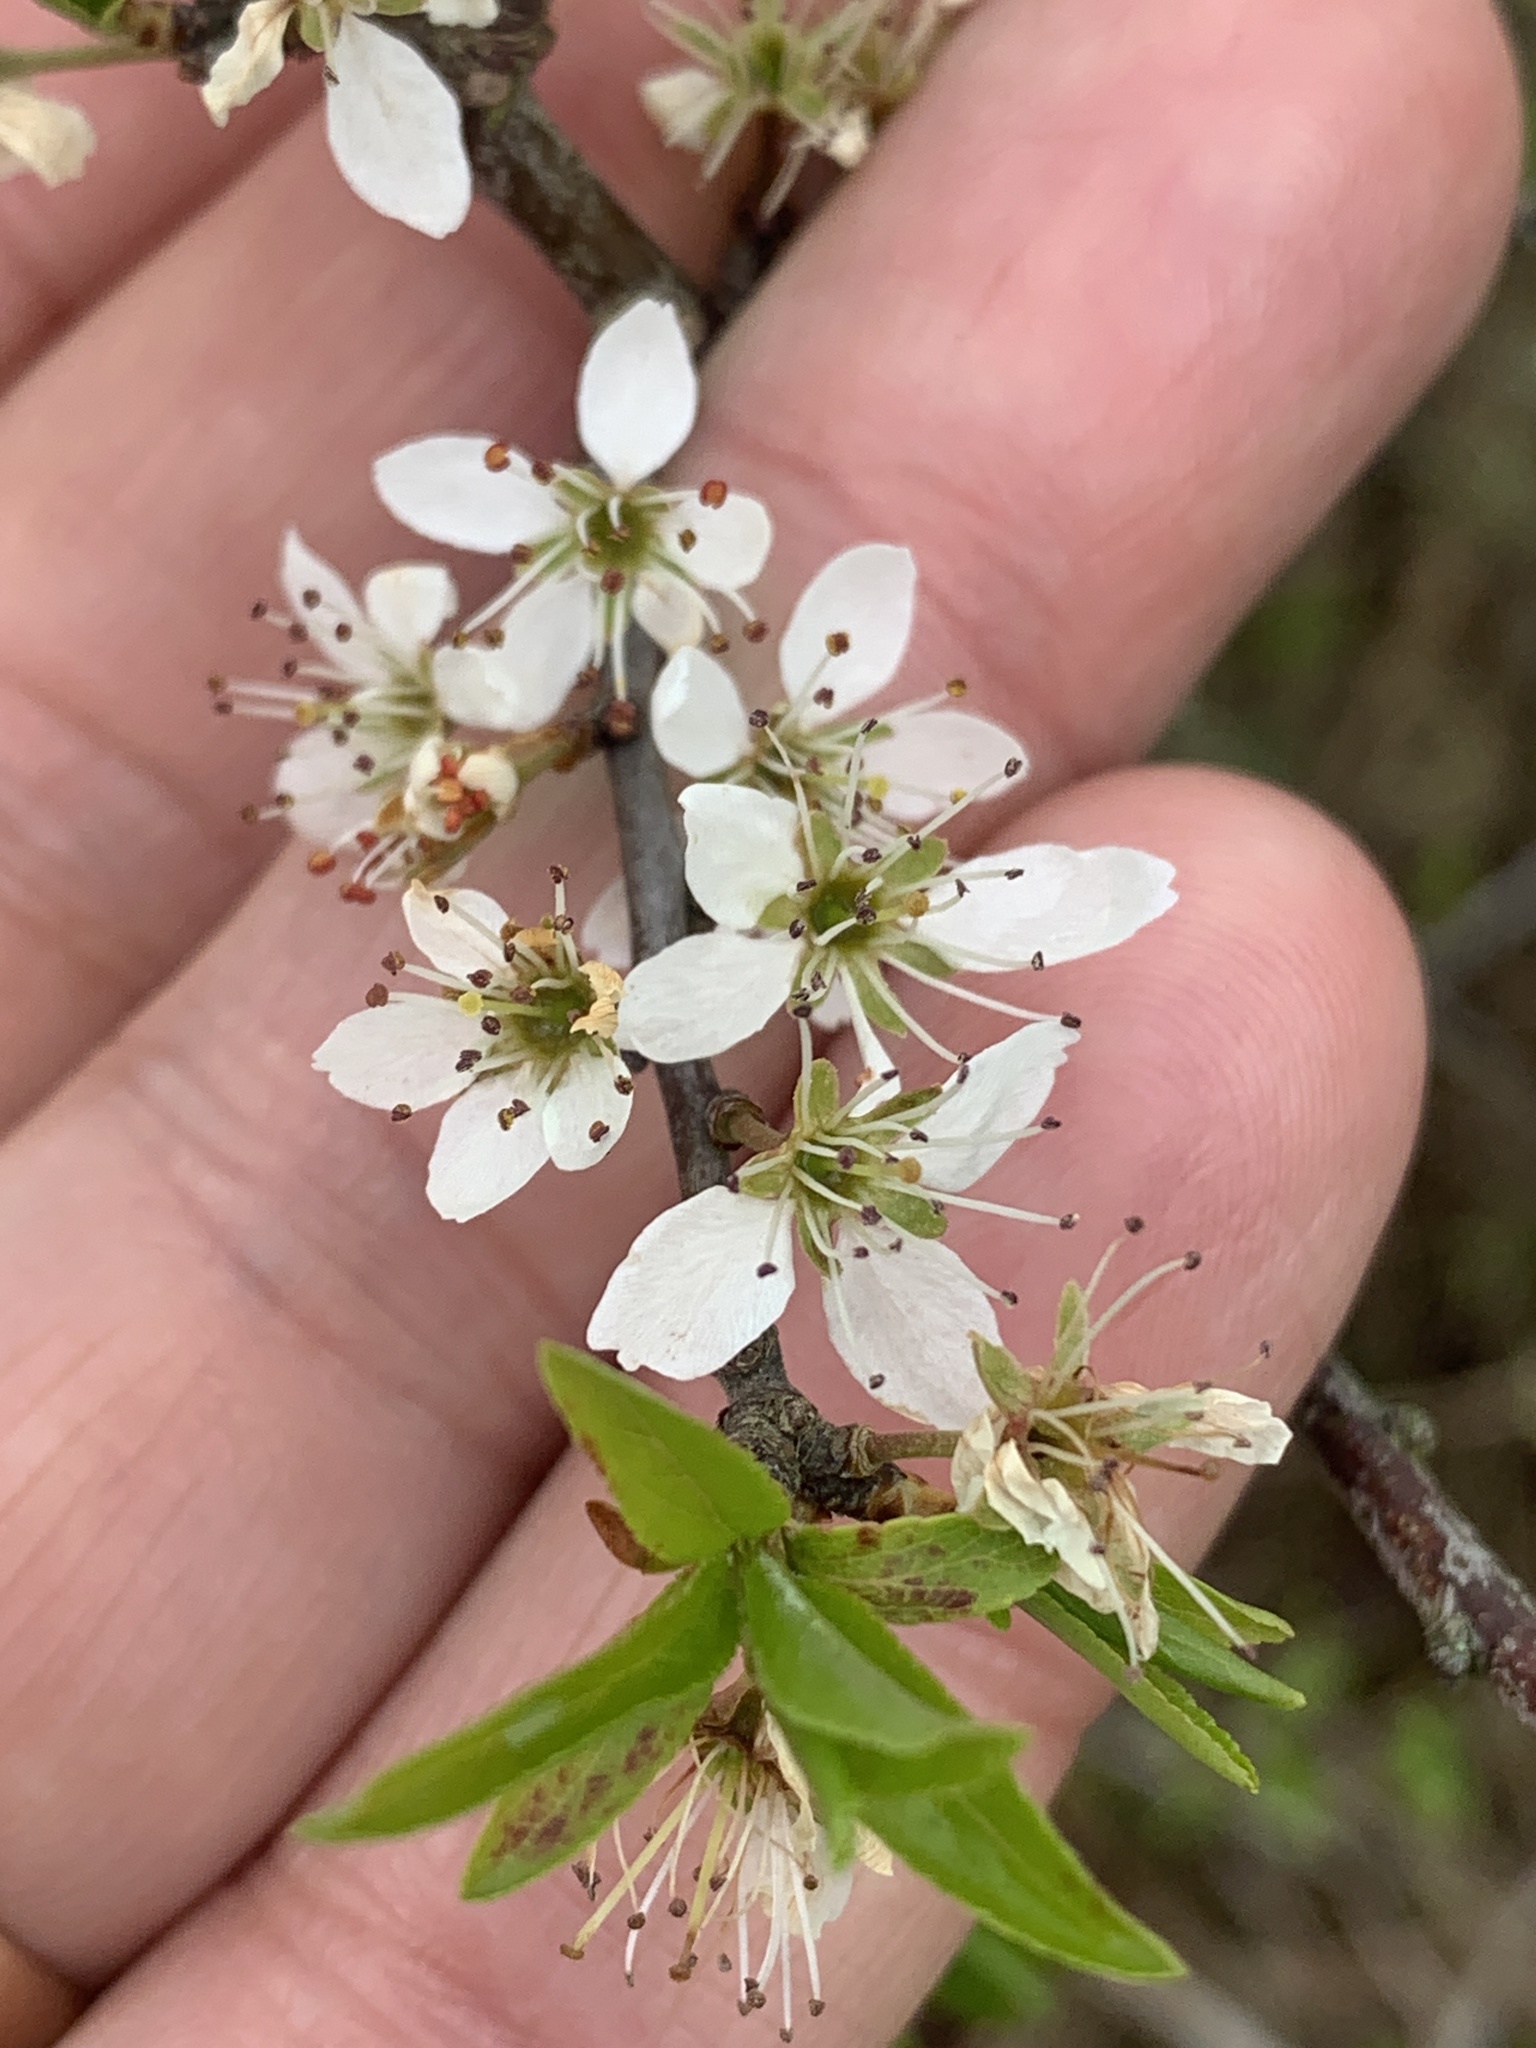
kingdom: Plantae
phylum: Tracheophyta
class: Magnoliopsida
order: Rosales
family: Rosaceae
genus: Prunus
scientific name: Prunus spinosa
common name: Blackthorn
